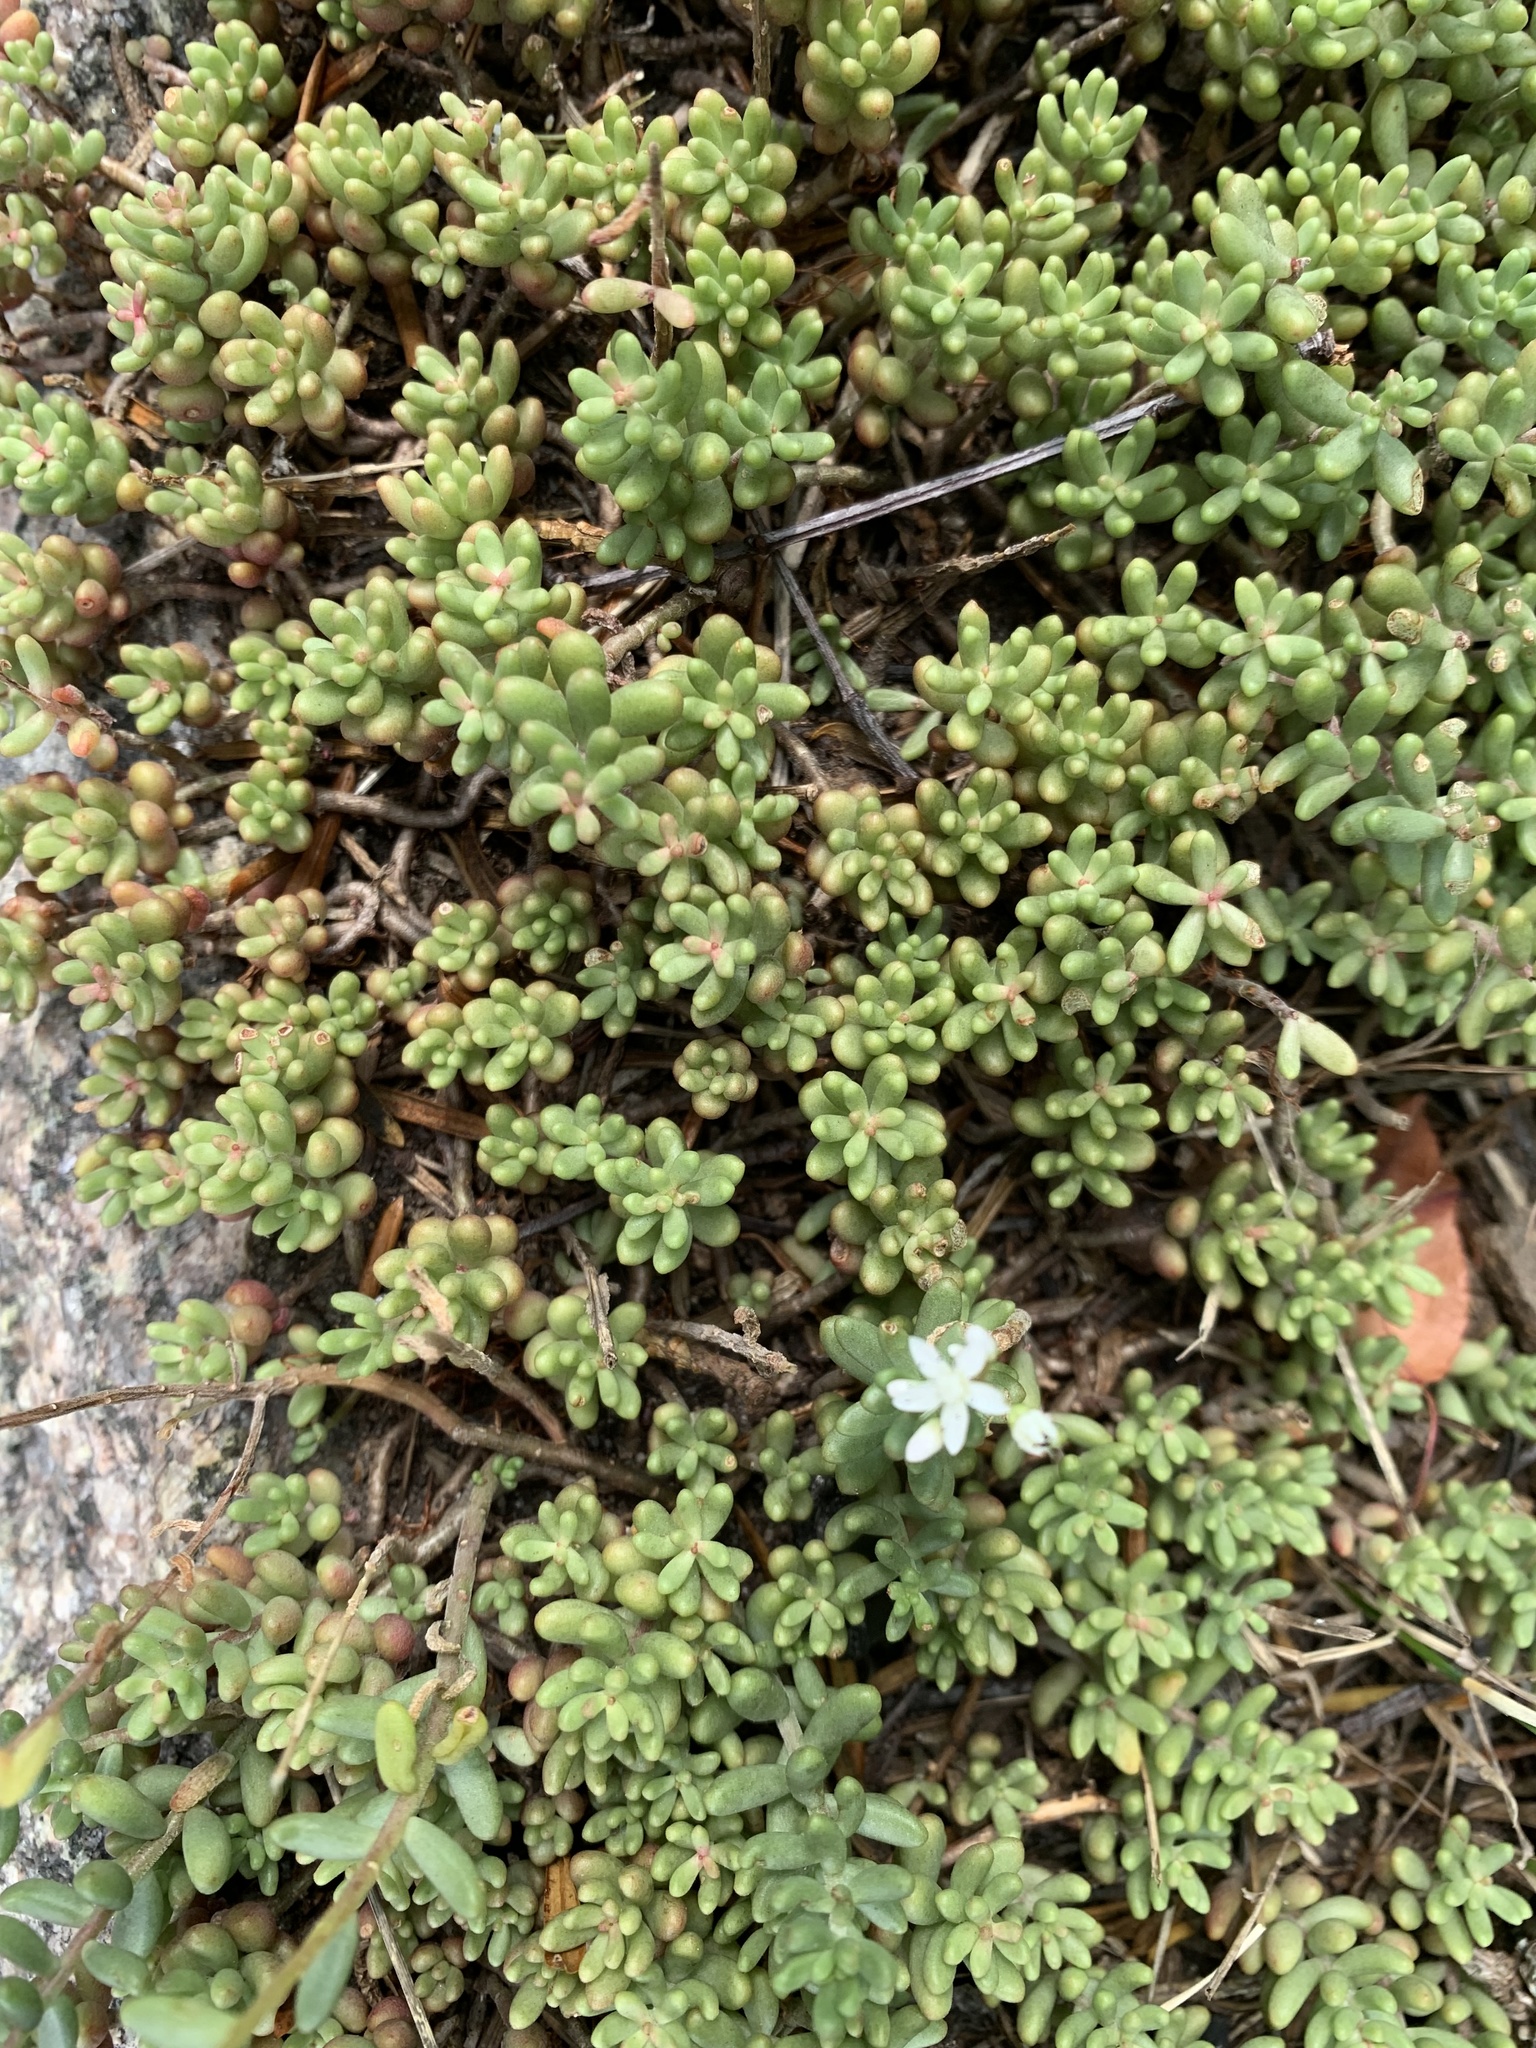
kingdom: Plantae
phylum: Tracheophyta
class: Magnoliopsida
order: Saxifragales
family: Crassulaceae
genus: Sedum
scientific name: Sedum album
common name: White stonecrop
